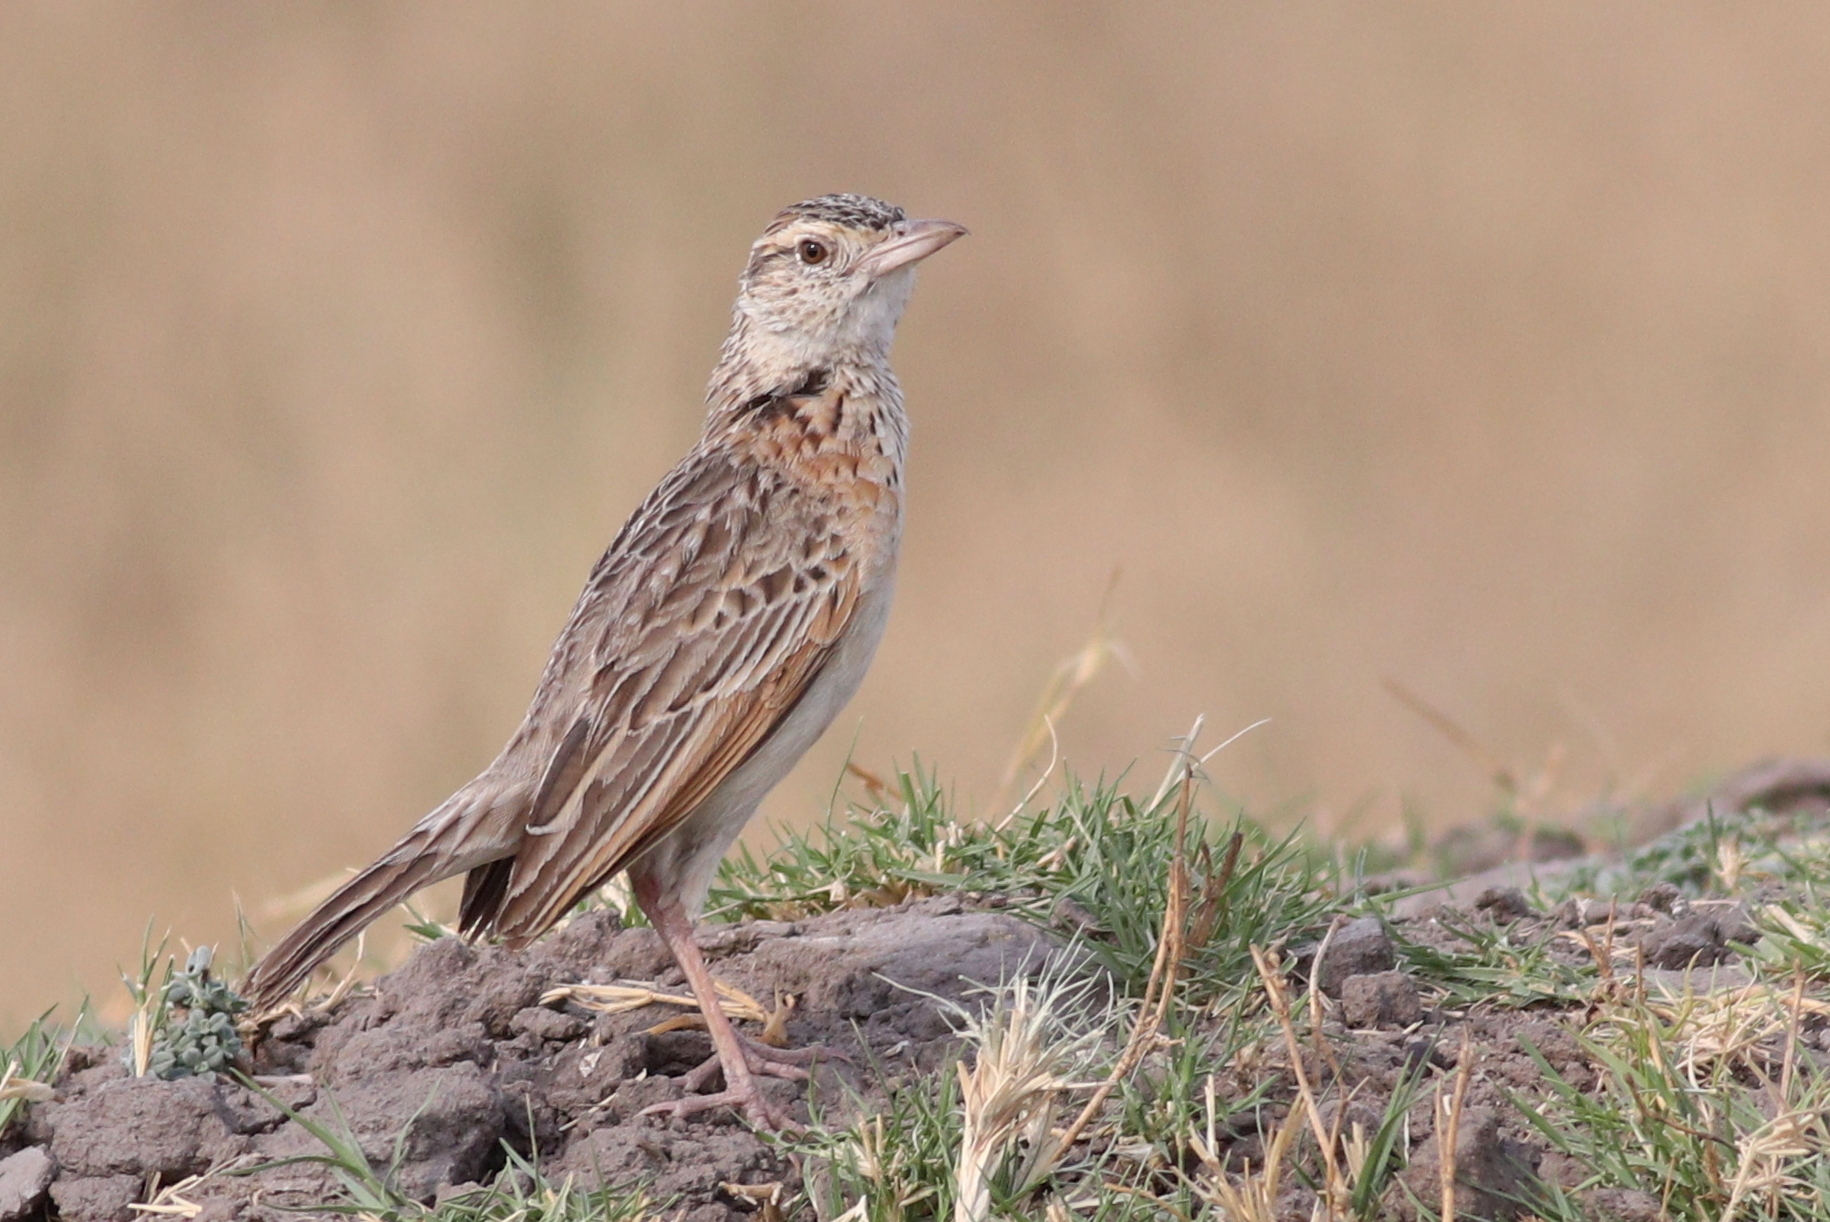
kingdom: Animalia
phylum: Chordata
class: Aves
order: Passeriformes
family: Alaudidae
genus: Mirafra
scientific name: Mirafra africana
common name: Rufous-naped lark
